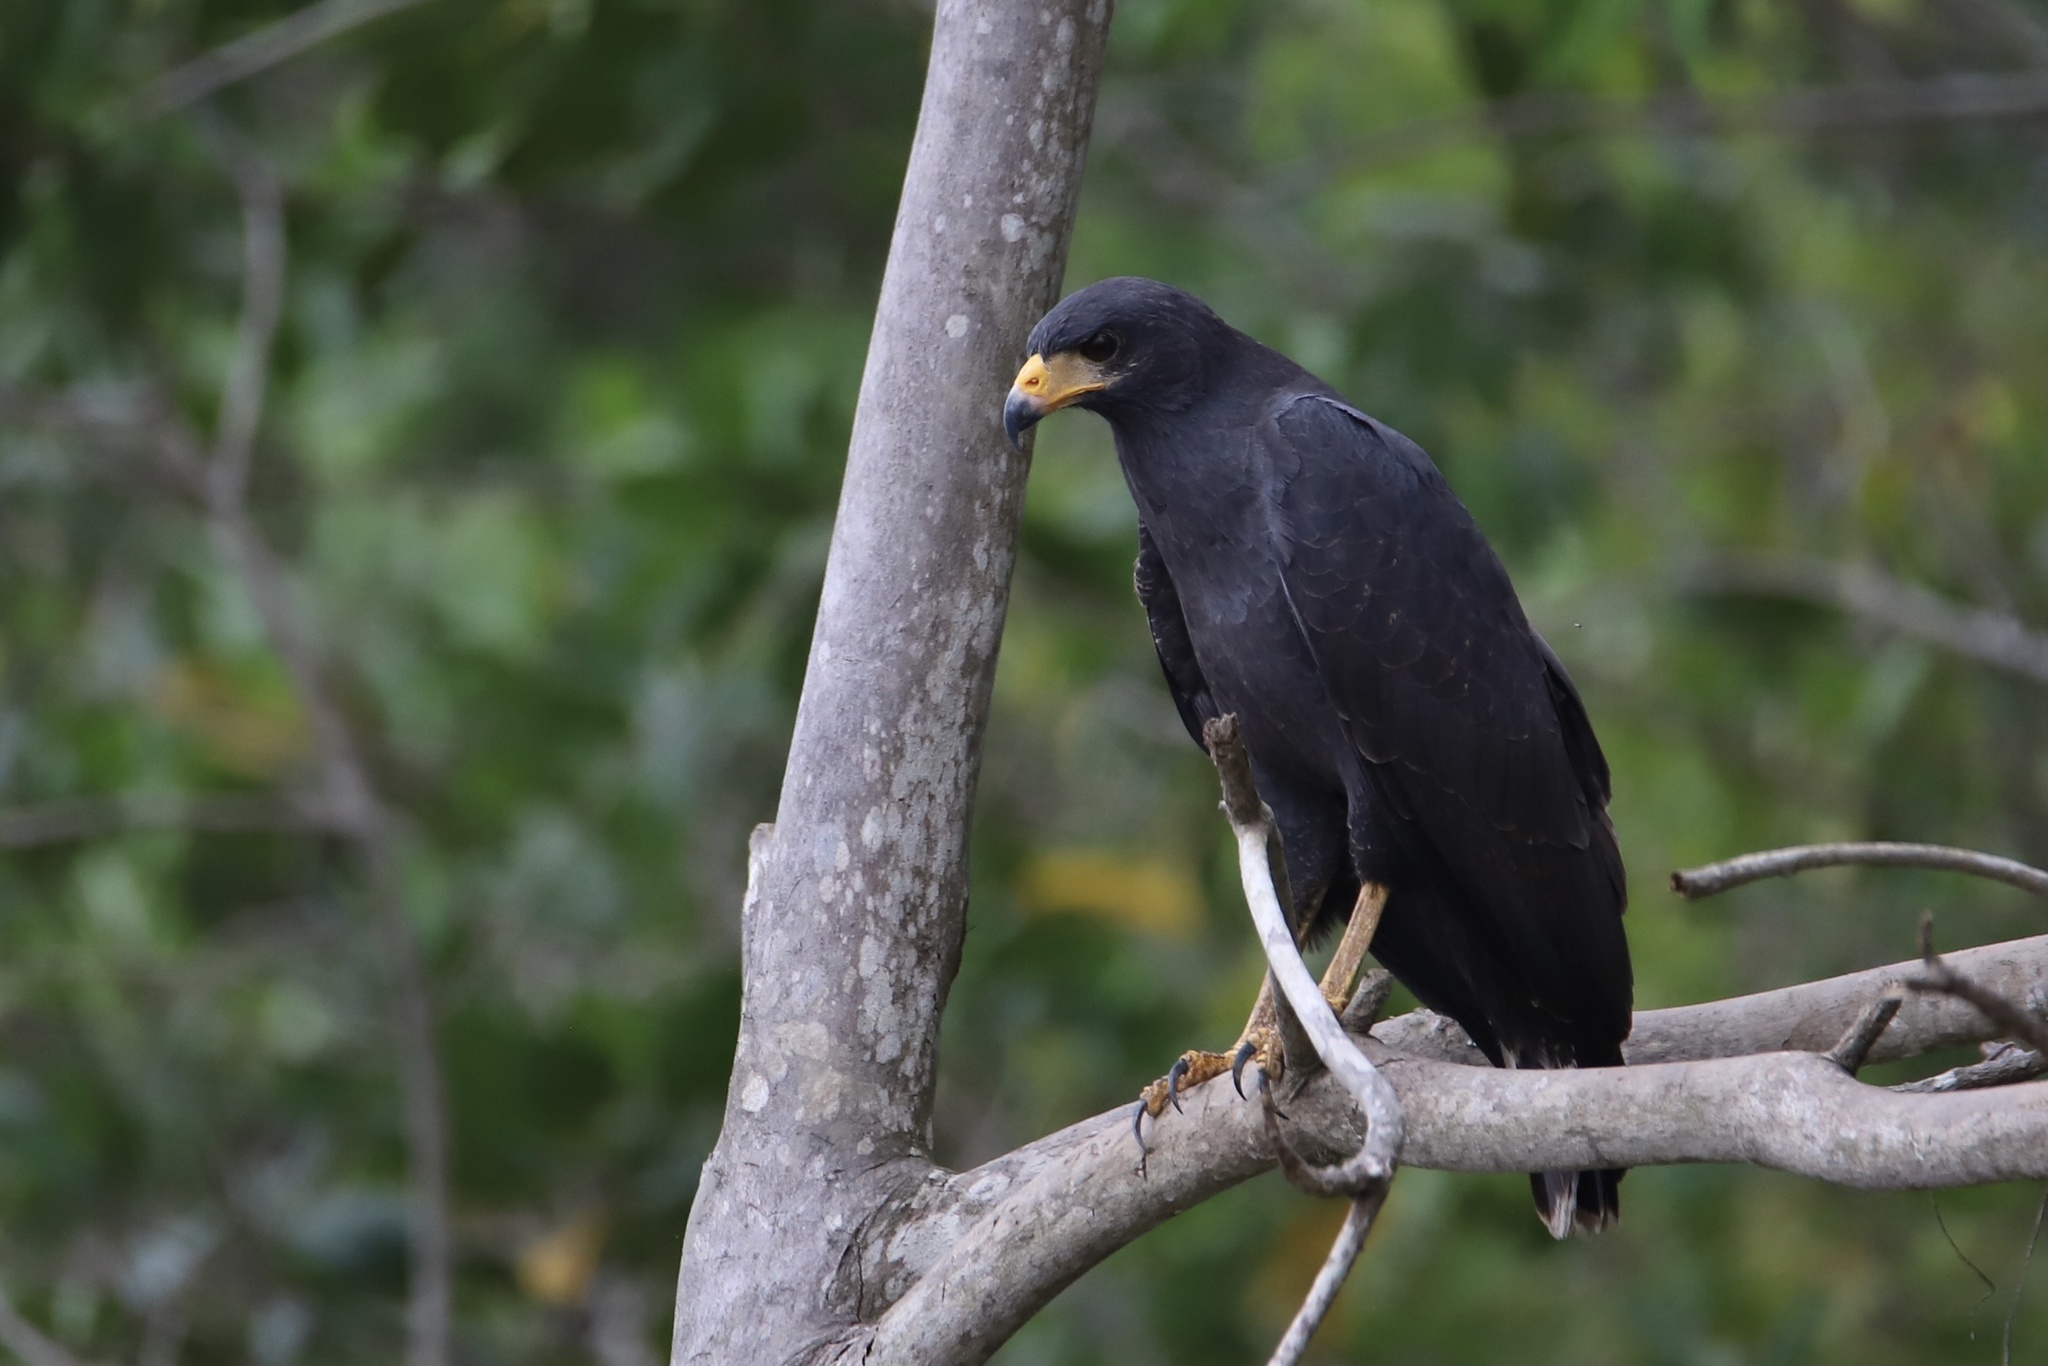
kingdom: Animalia
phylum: Chordata
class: Aves
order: Accipitriformes
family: Accipitridae
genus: Buteogallus
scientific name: Buteogallus urubitinga
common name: Great black hawk
